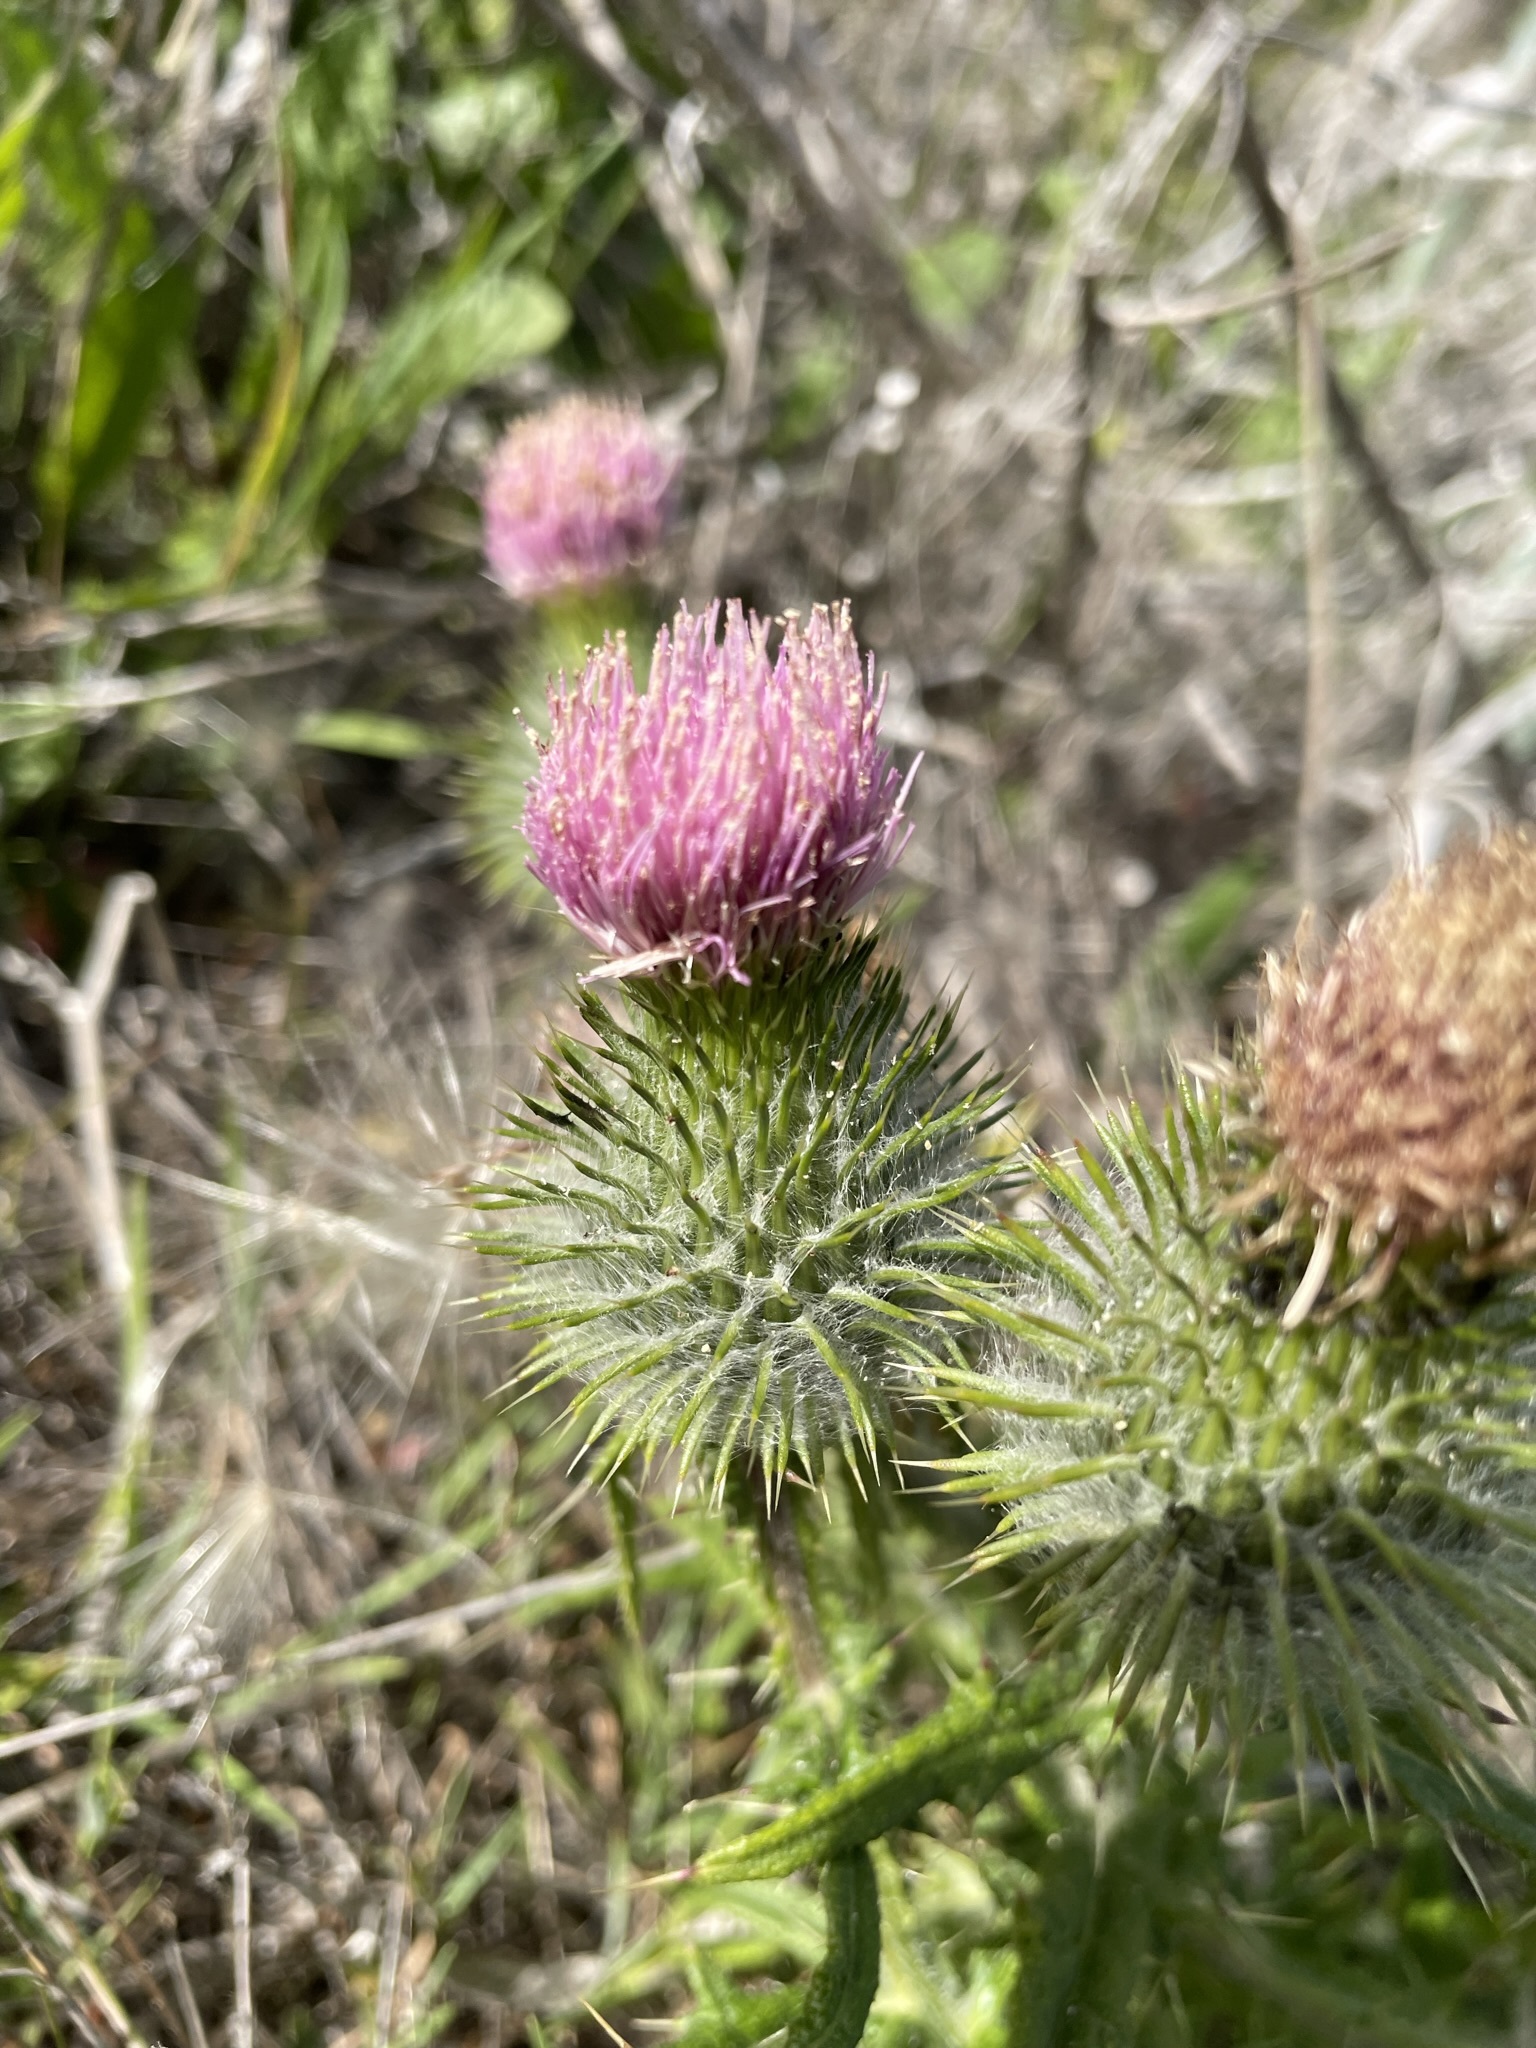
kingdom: Plantae
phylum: Tracheophyta
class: Magnoliopsida
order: Asterales
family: Asteraceae
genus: Cirsium
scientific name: Cirsium vulgare
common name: Bull thistle
